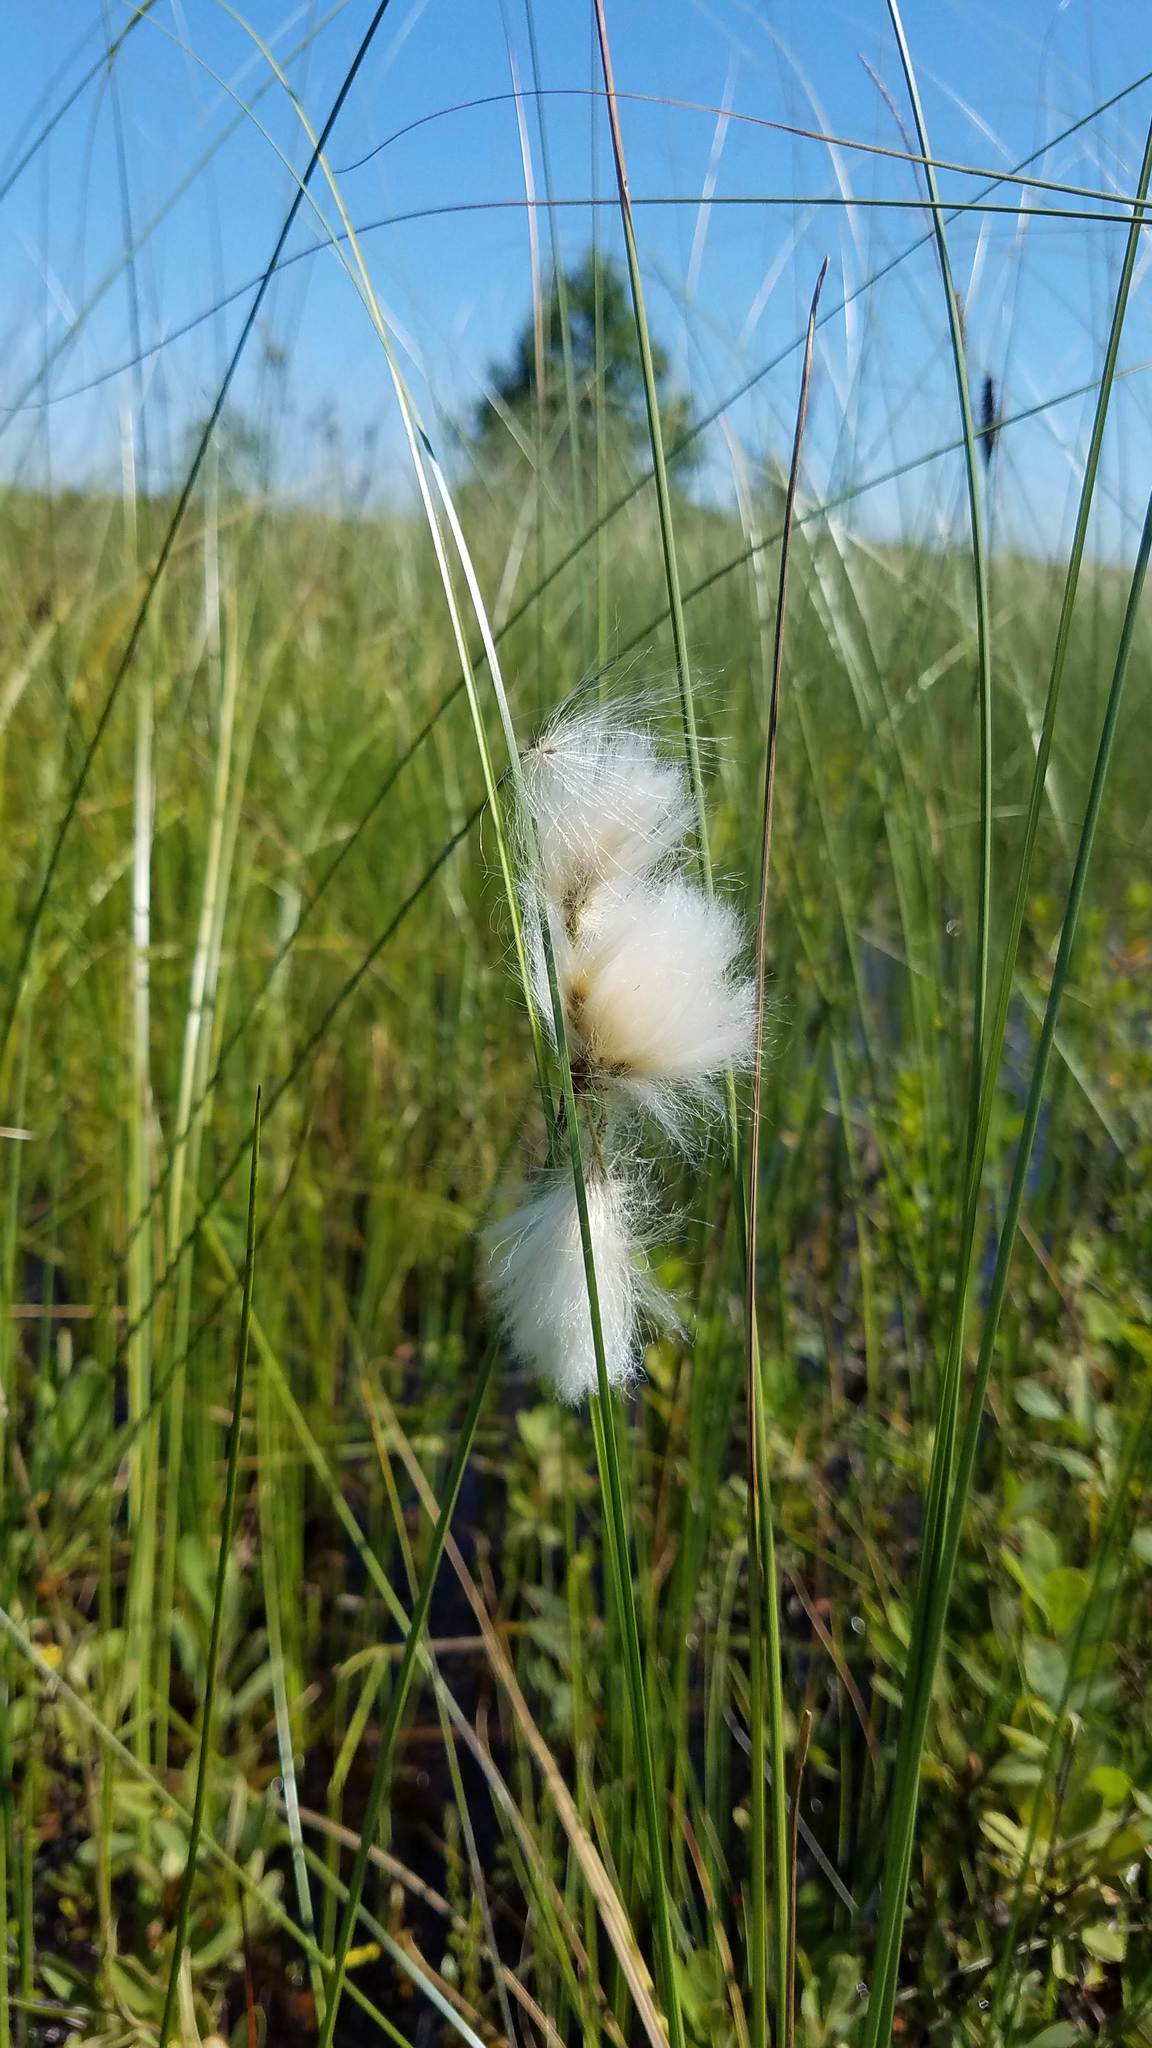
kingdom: Plantae
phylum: Tracheophyta
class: Liliopsida
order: Poales
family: Cyperaceae
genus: Eriophorum
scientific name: Eriophorum angustifolium
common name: Common cottongrass
